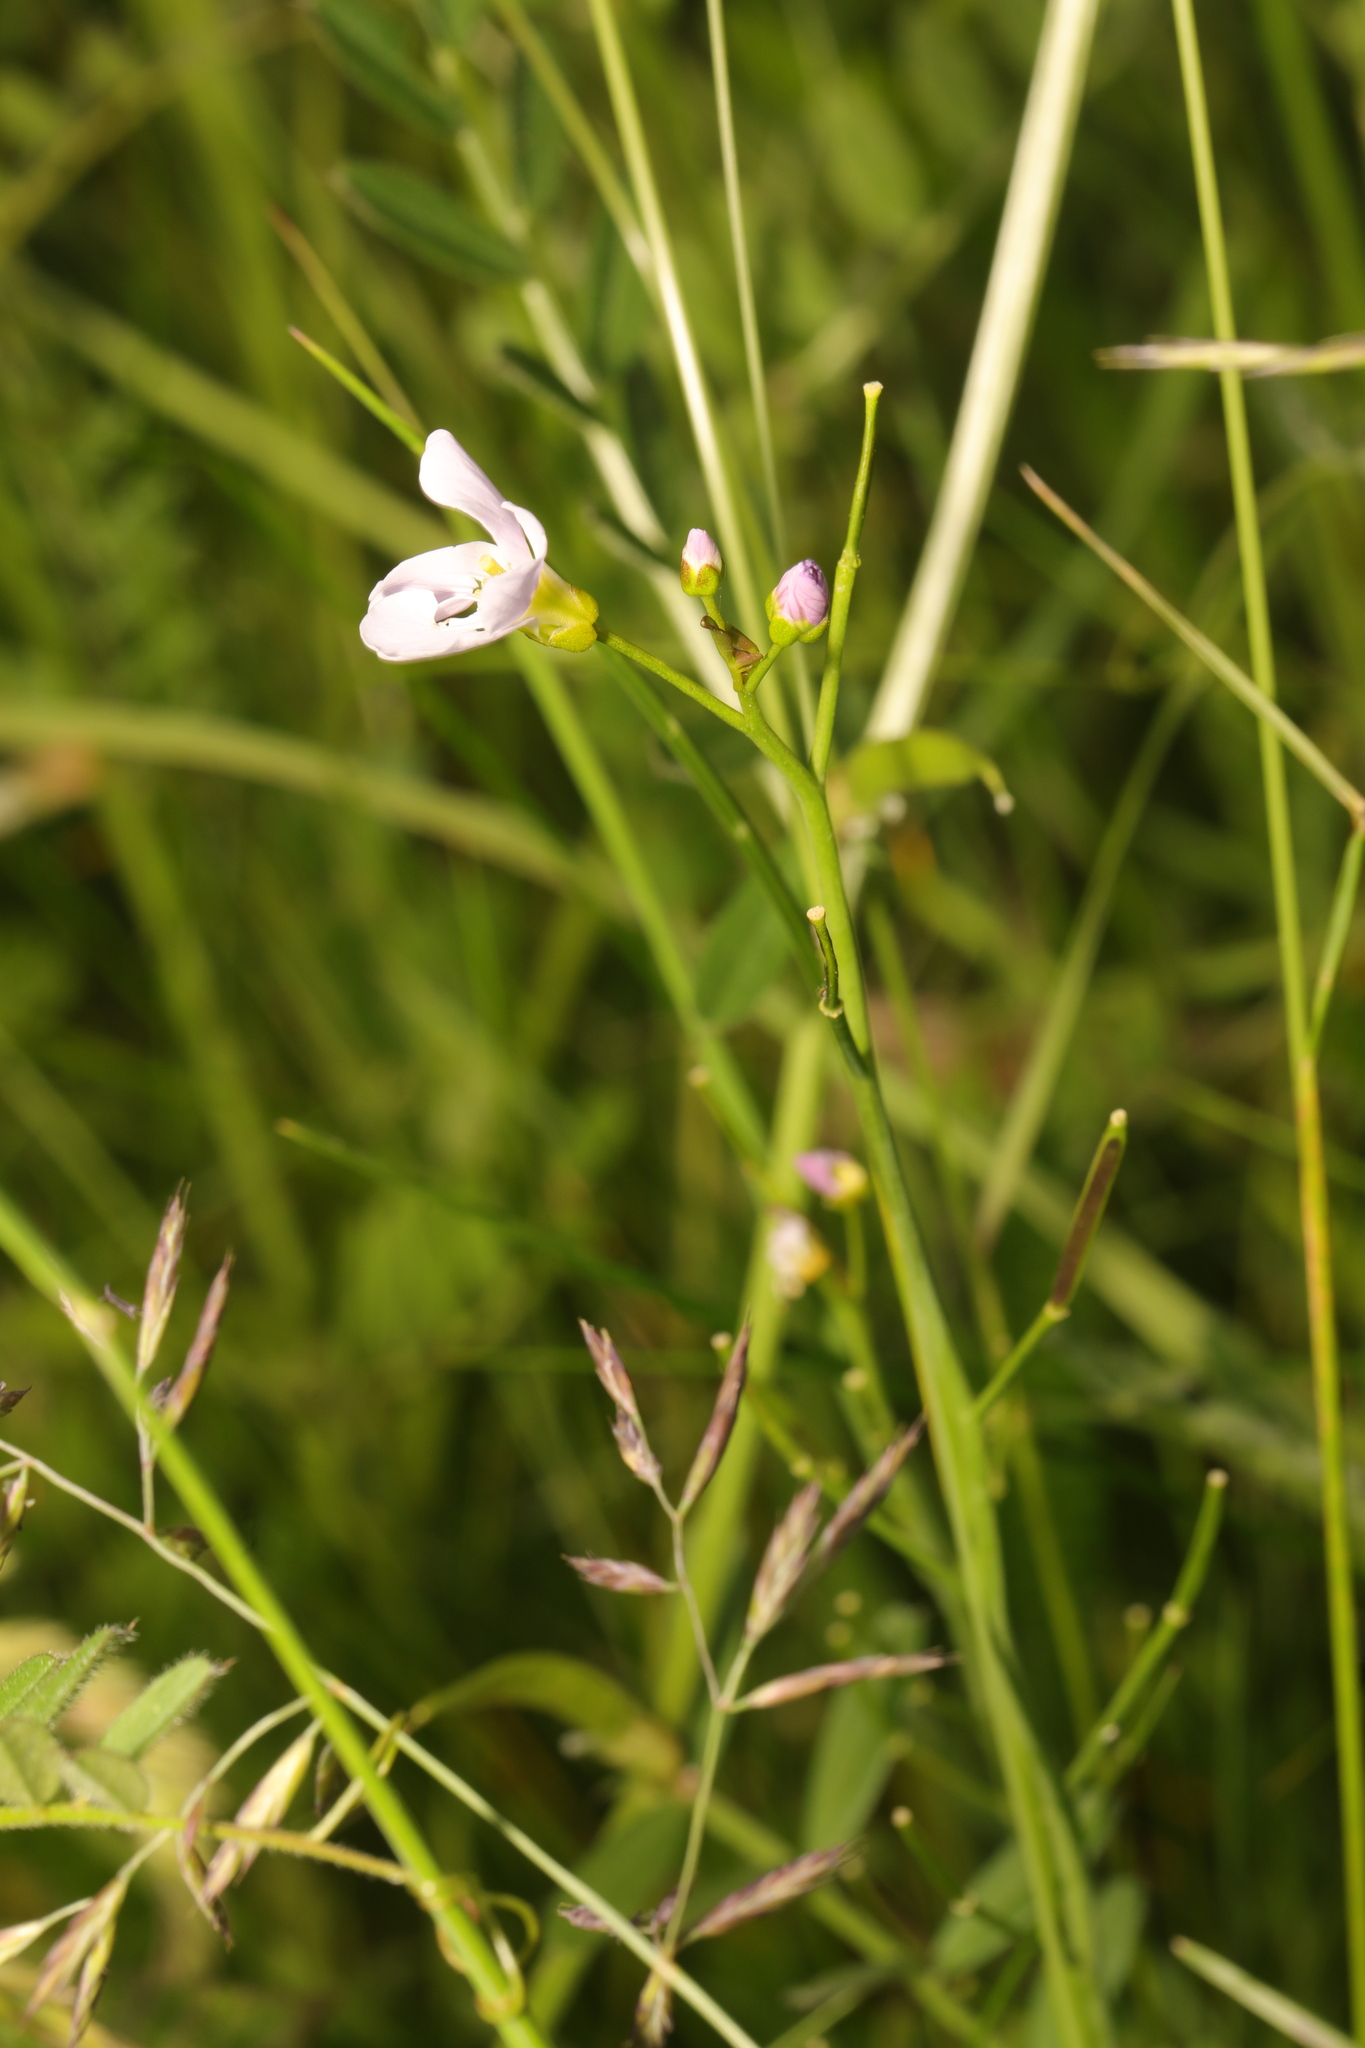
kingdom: Plantae
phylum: Tracheophyta
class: Magnoliopsida
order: Brassicales
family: Brassicaceae
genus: Cardamine
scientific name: Cardamine pratensis
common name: Cuckoo flower
